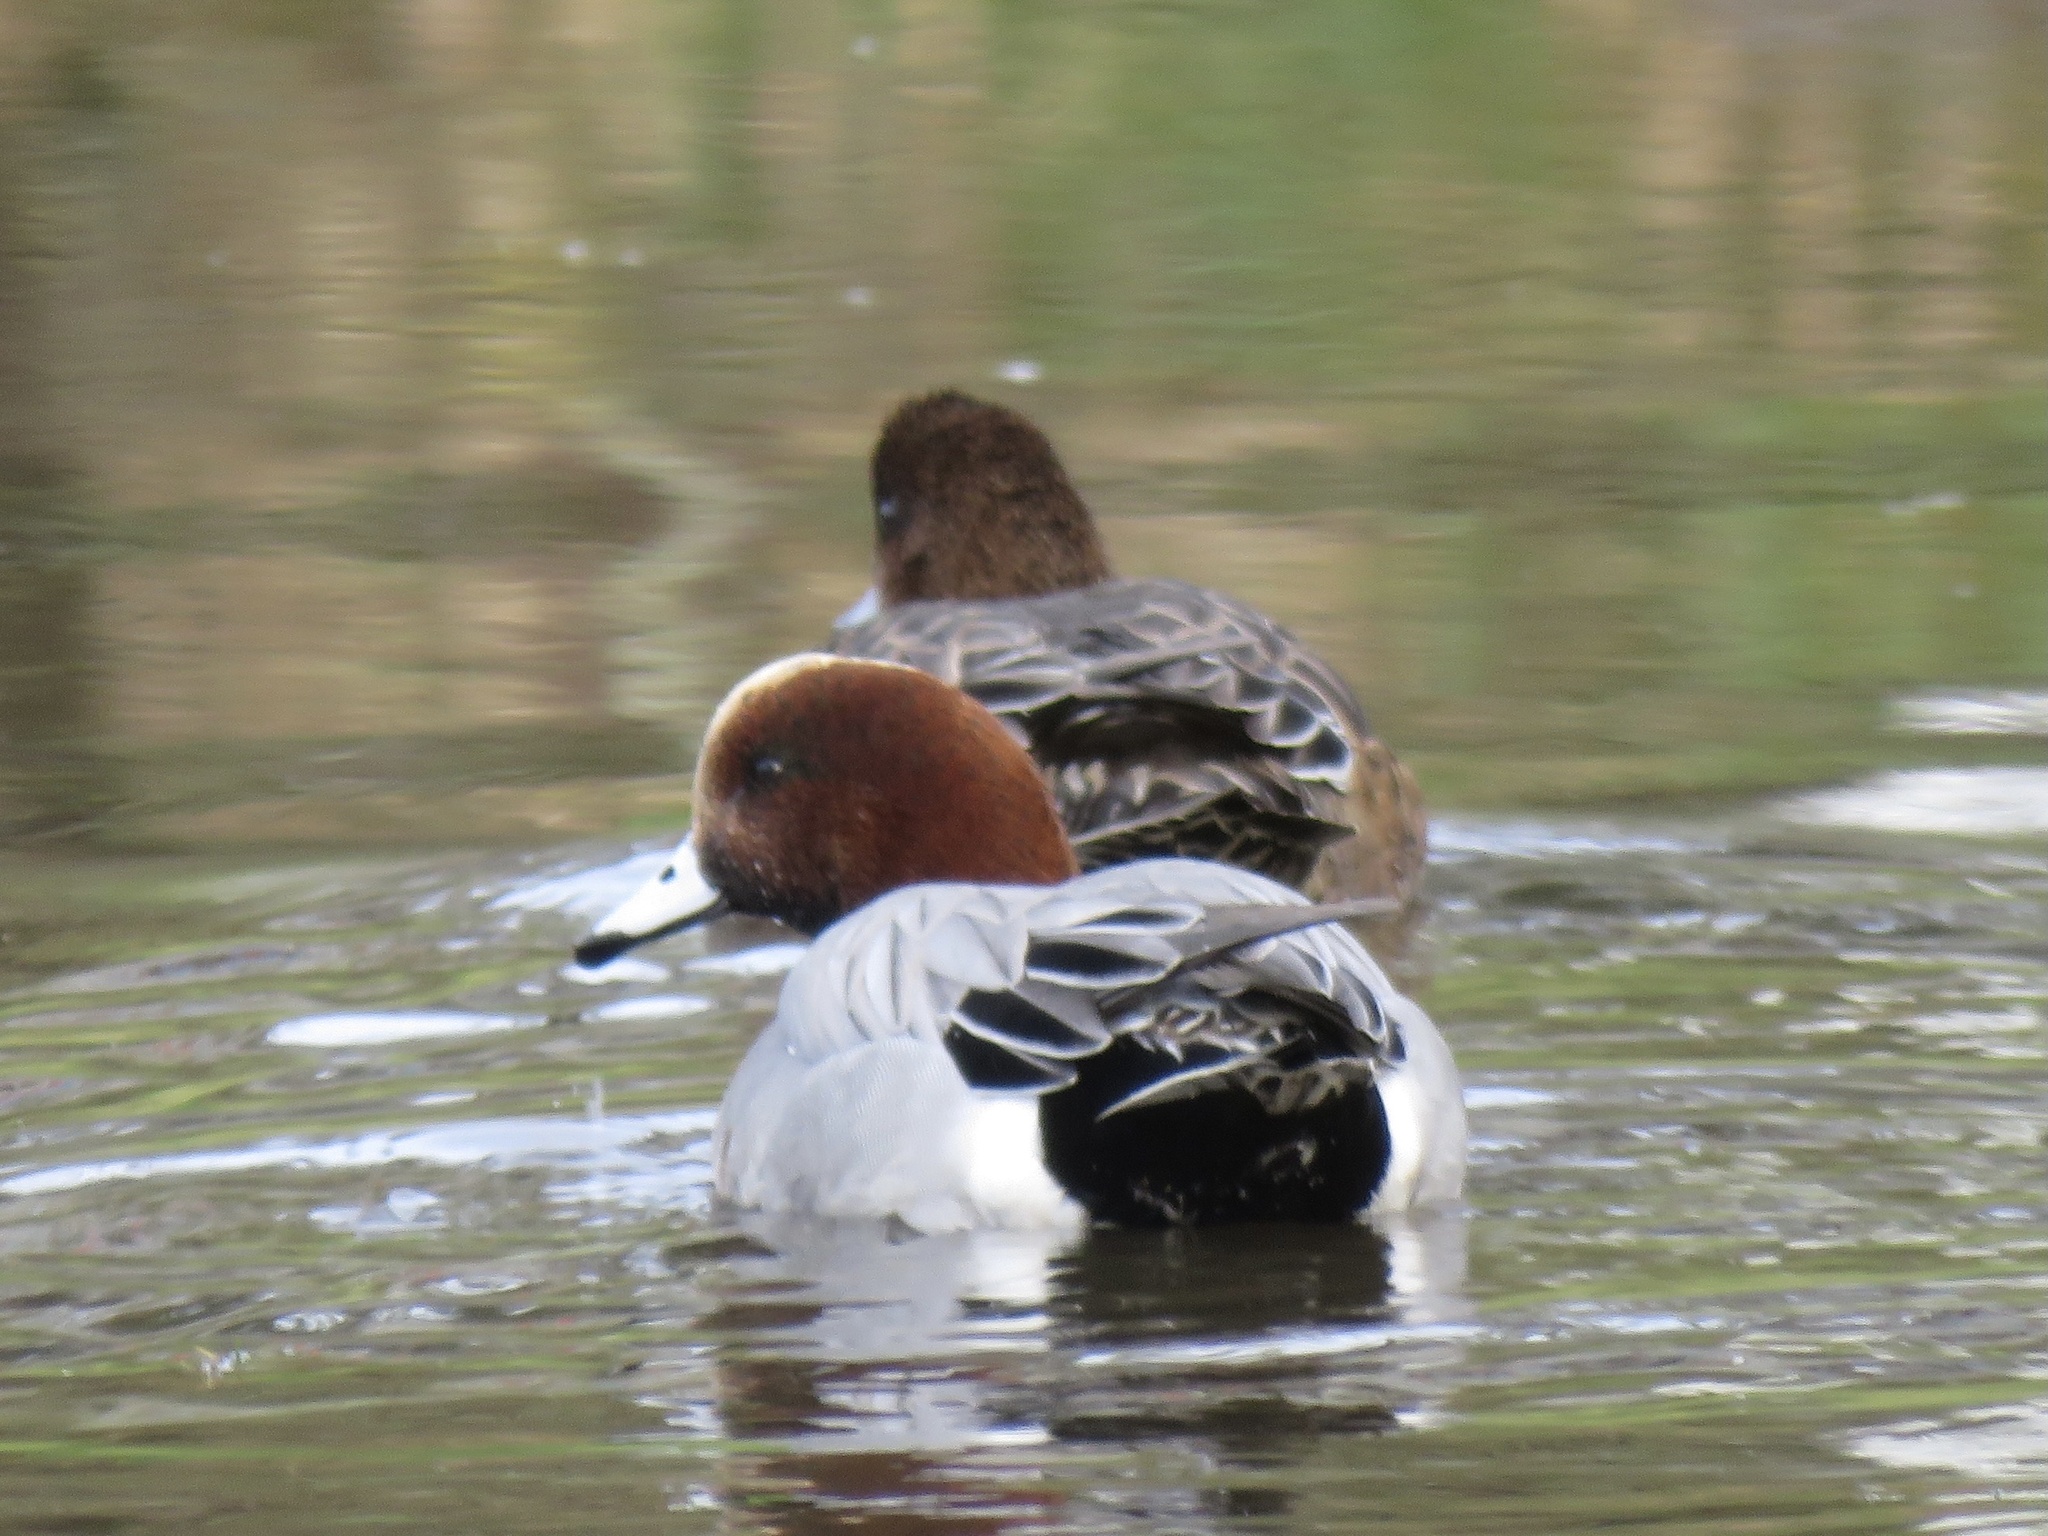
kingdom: Animalia
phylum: Chordata
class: Aves
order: Anseriformes
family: Anatidae
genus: Mareca
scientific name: Mareca penelope
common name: Eurasian wigeon
